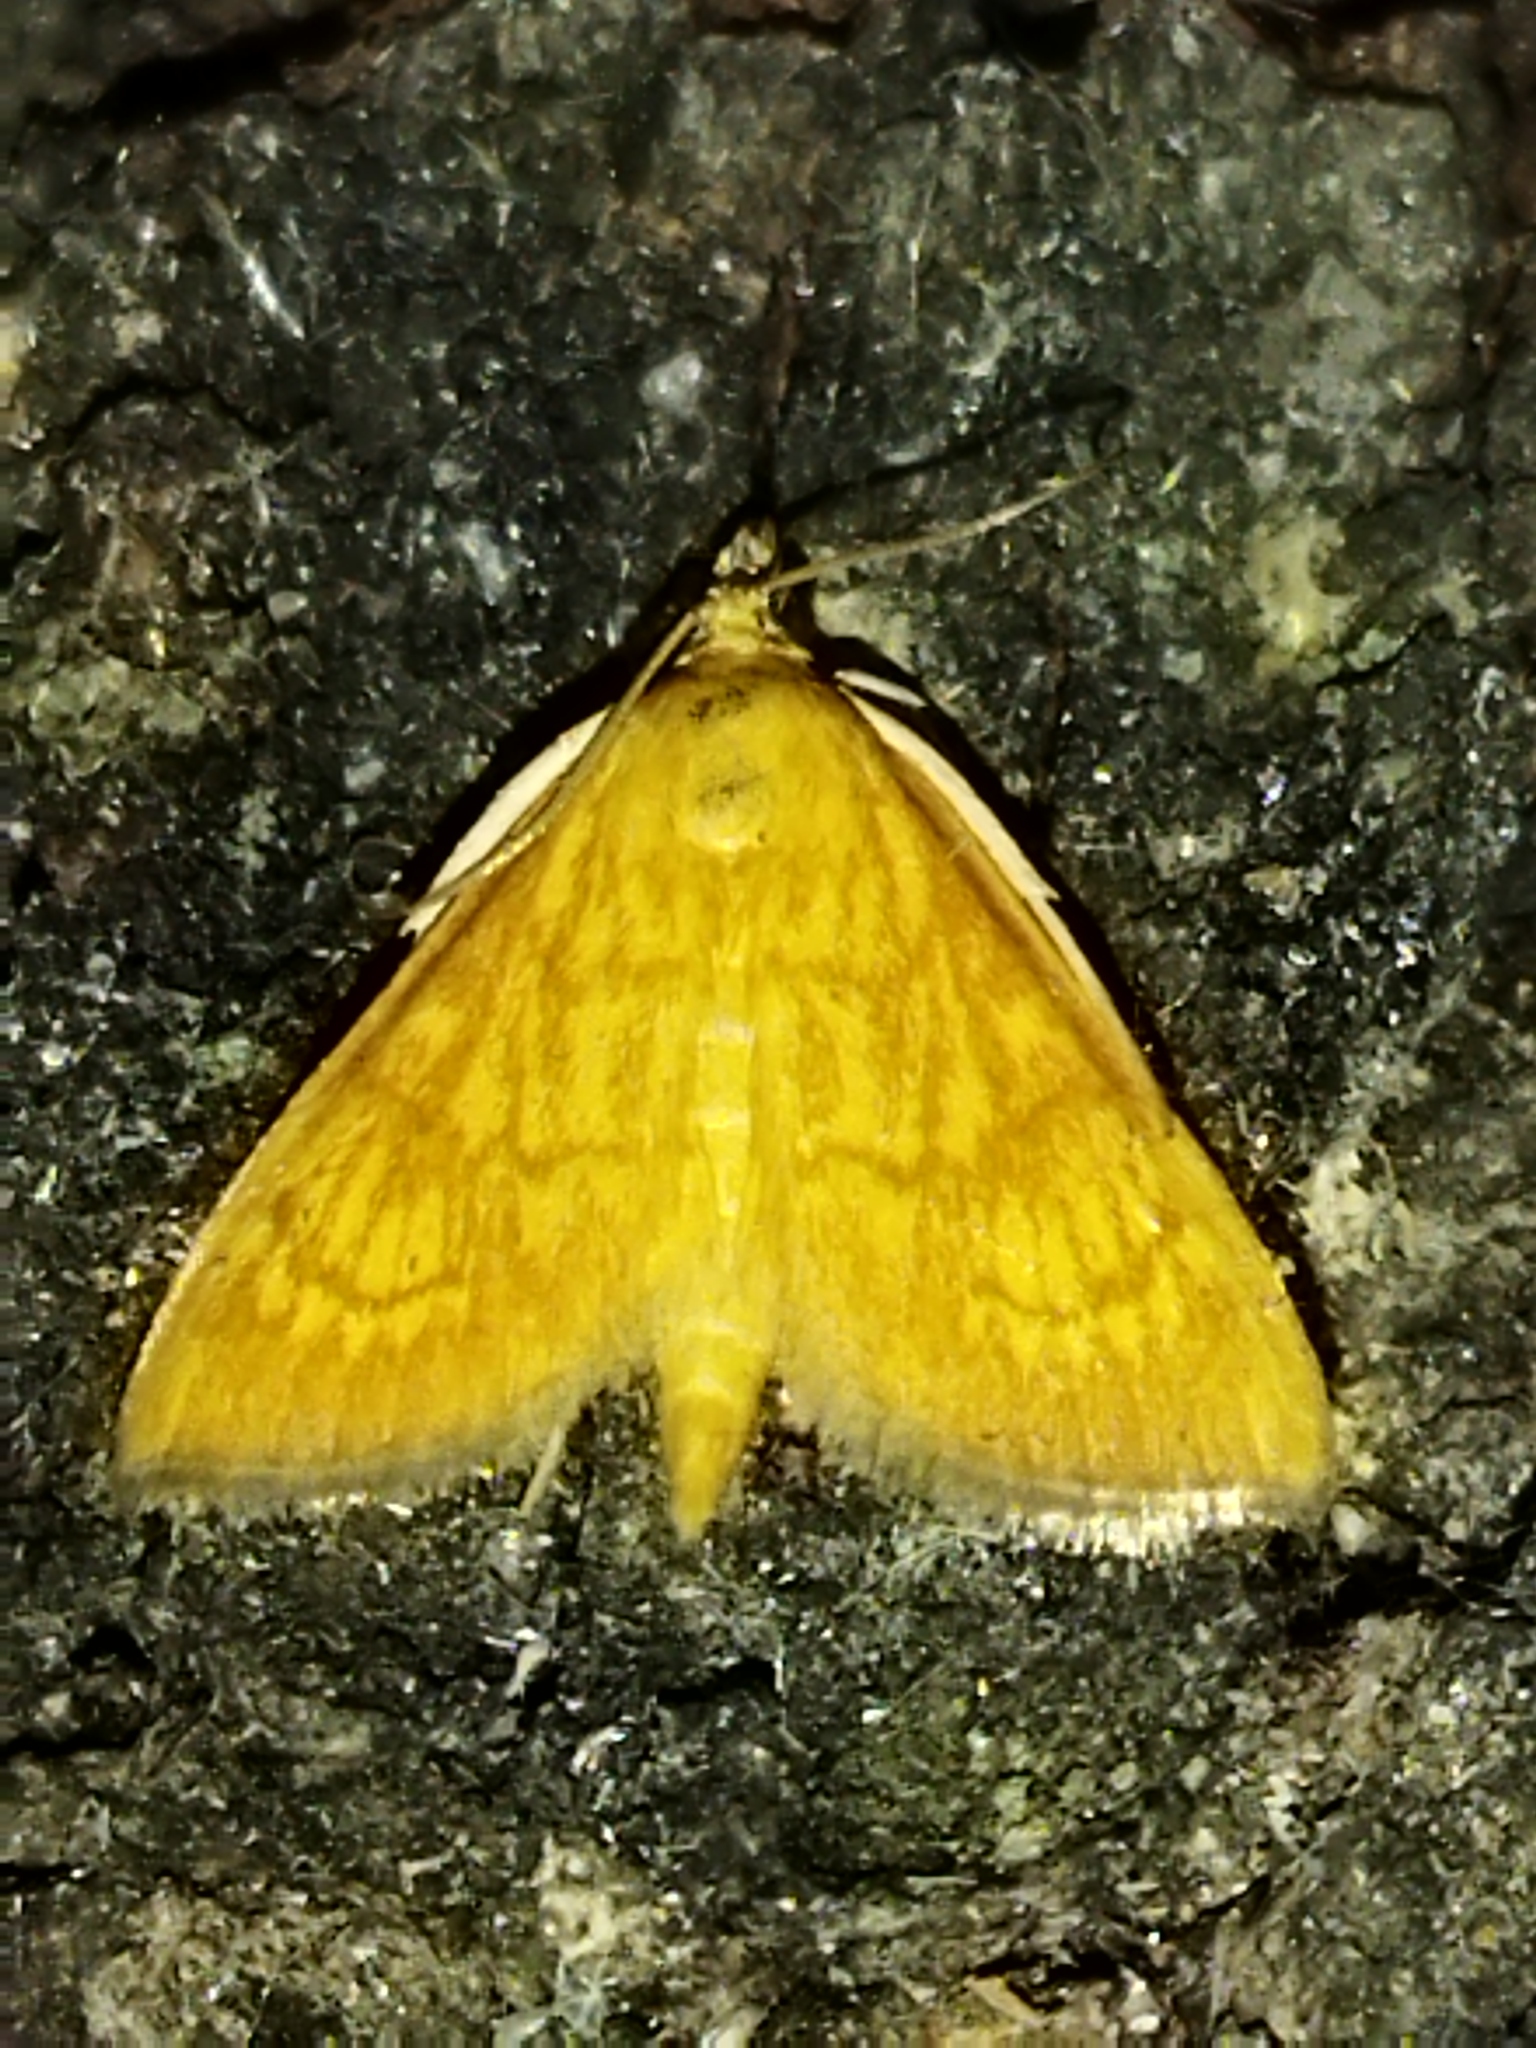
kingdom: Animalia
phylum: Arthropoda
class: Insecta
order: Lepidoptera
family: Crambidae
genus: Ecpyrrhorrhoe
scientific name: Ecpyrrhorrhoe rubiginalis
